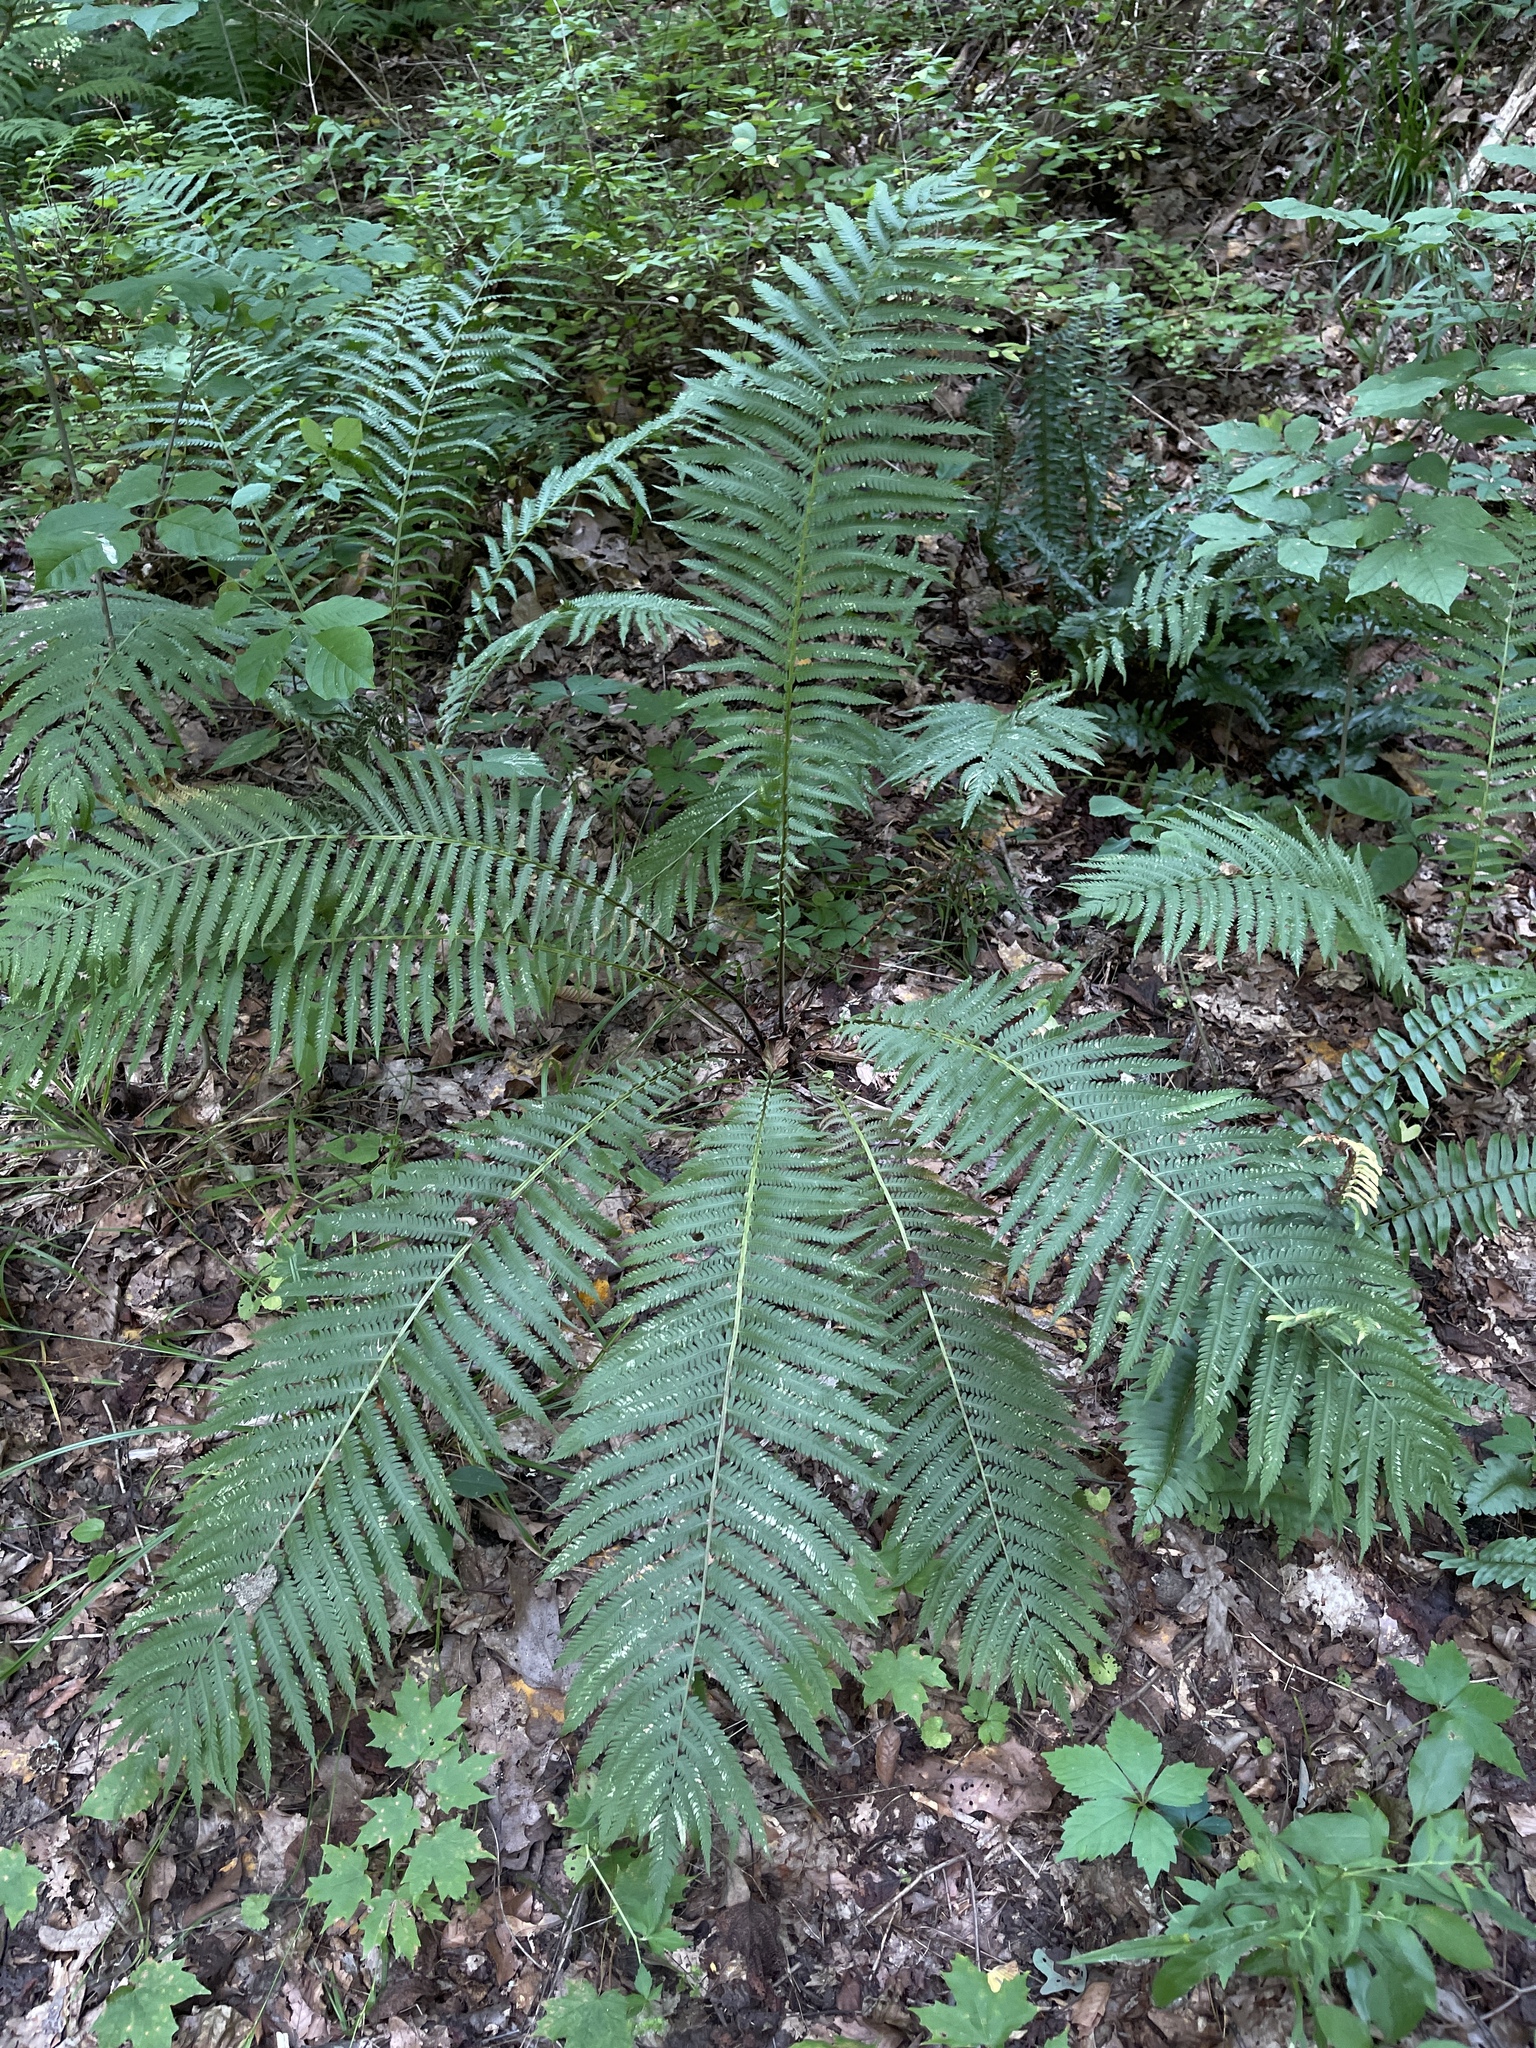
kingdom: Plantae
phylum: Tracheophyta
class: Polypodiopsida
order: Polypodiales
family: Onocleaceae
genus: Matteuccia
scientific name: Matteuccia struthiopteris
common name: Ostrich fern
